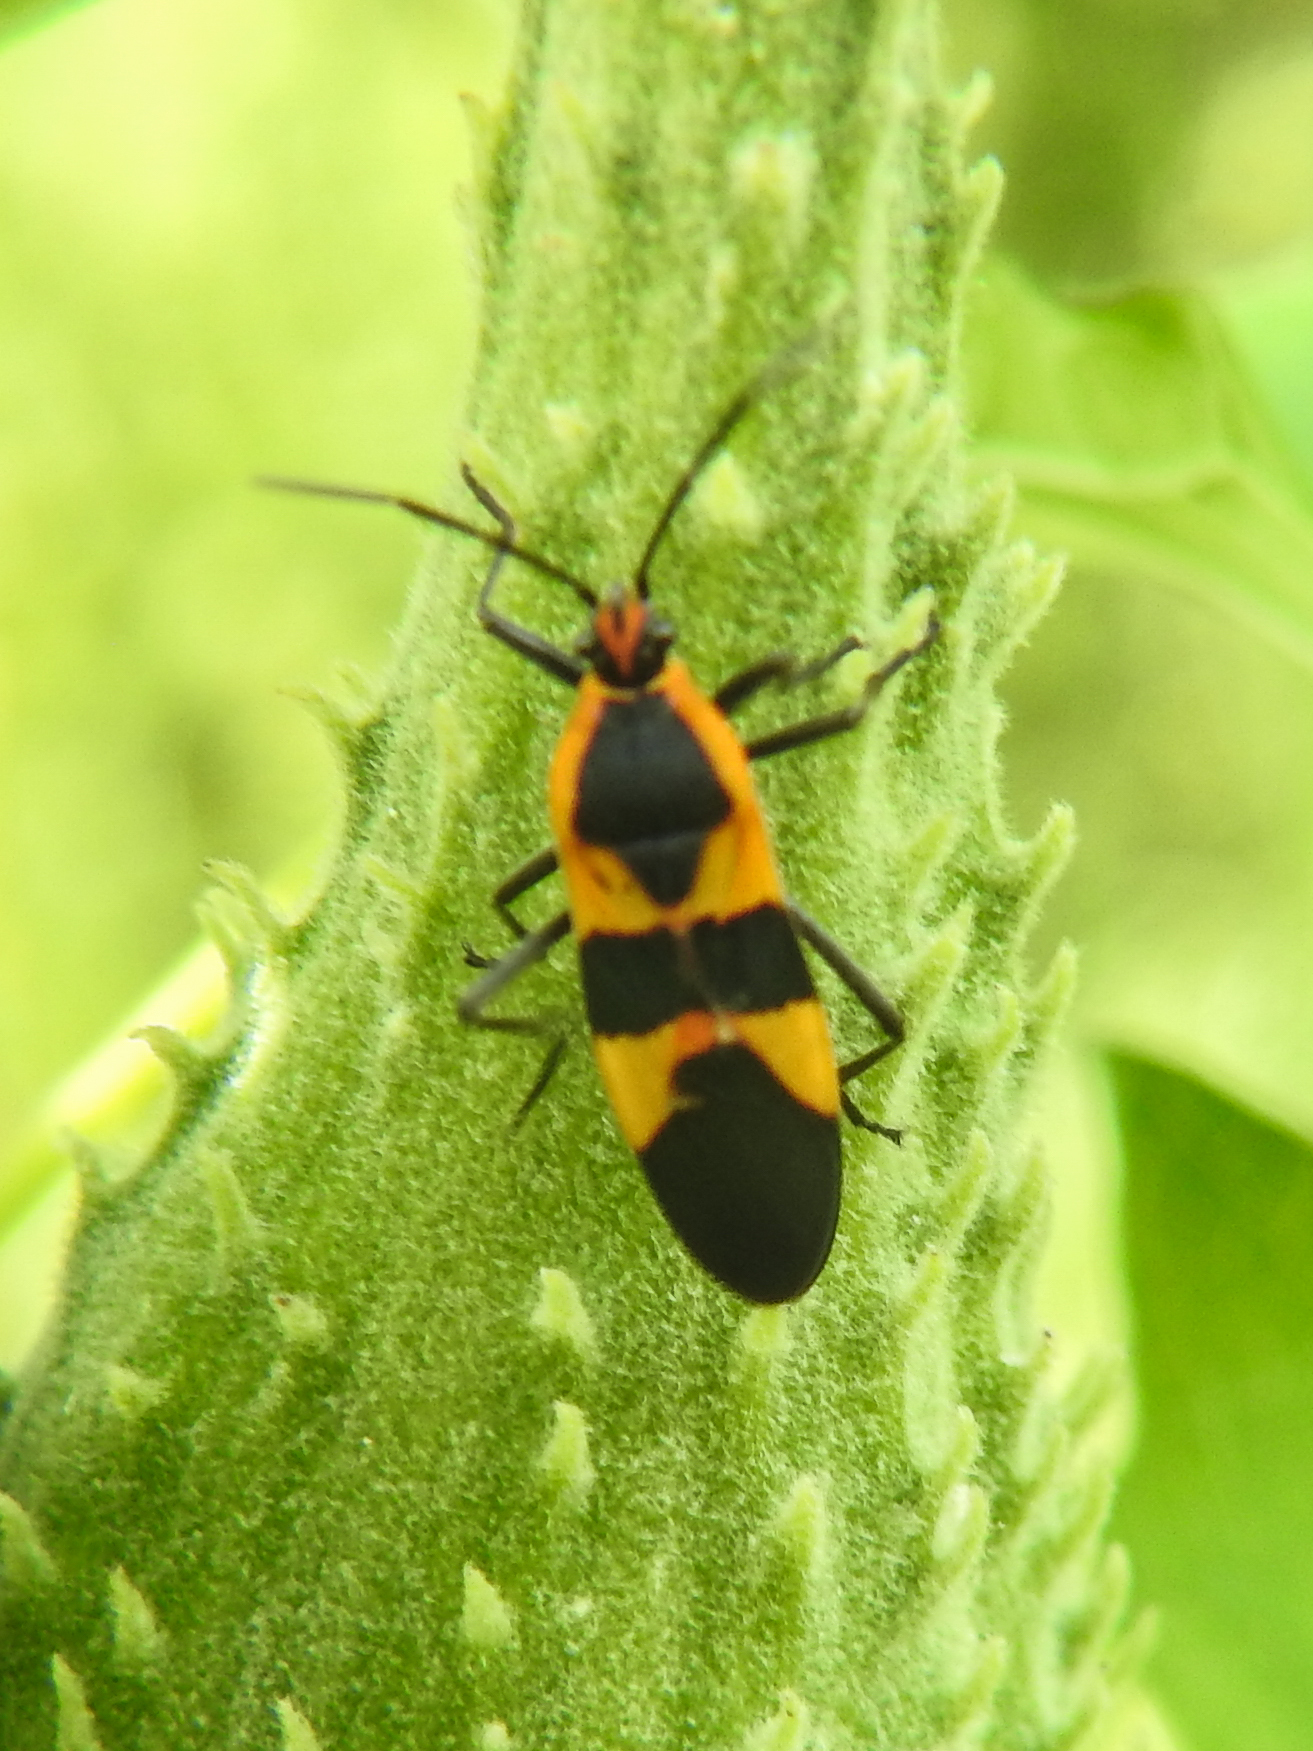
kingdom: Animalia
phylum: Arthropoda
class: Insecta
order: Hemiptera
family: Lygaeidae
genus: Oncopeltus
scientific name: Oncopeltus fasciatus
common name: Large milkweed bug
